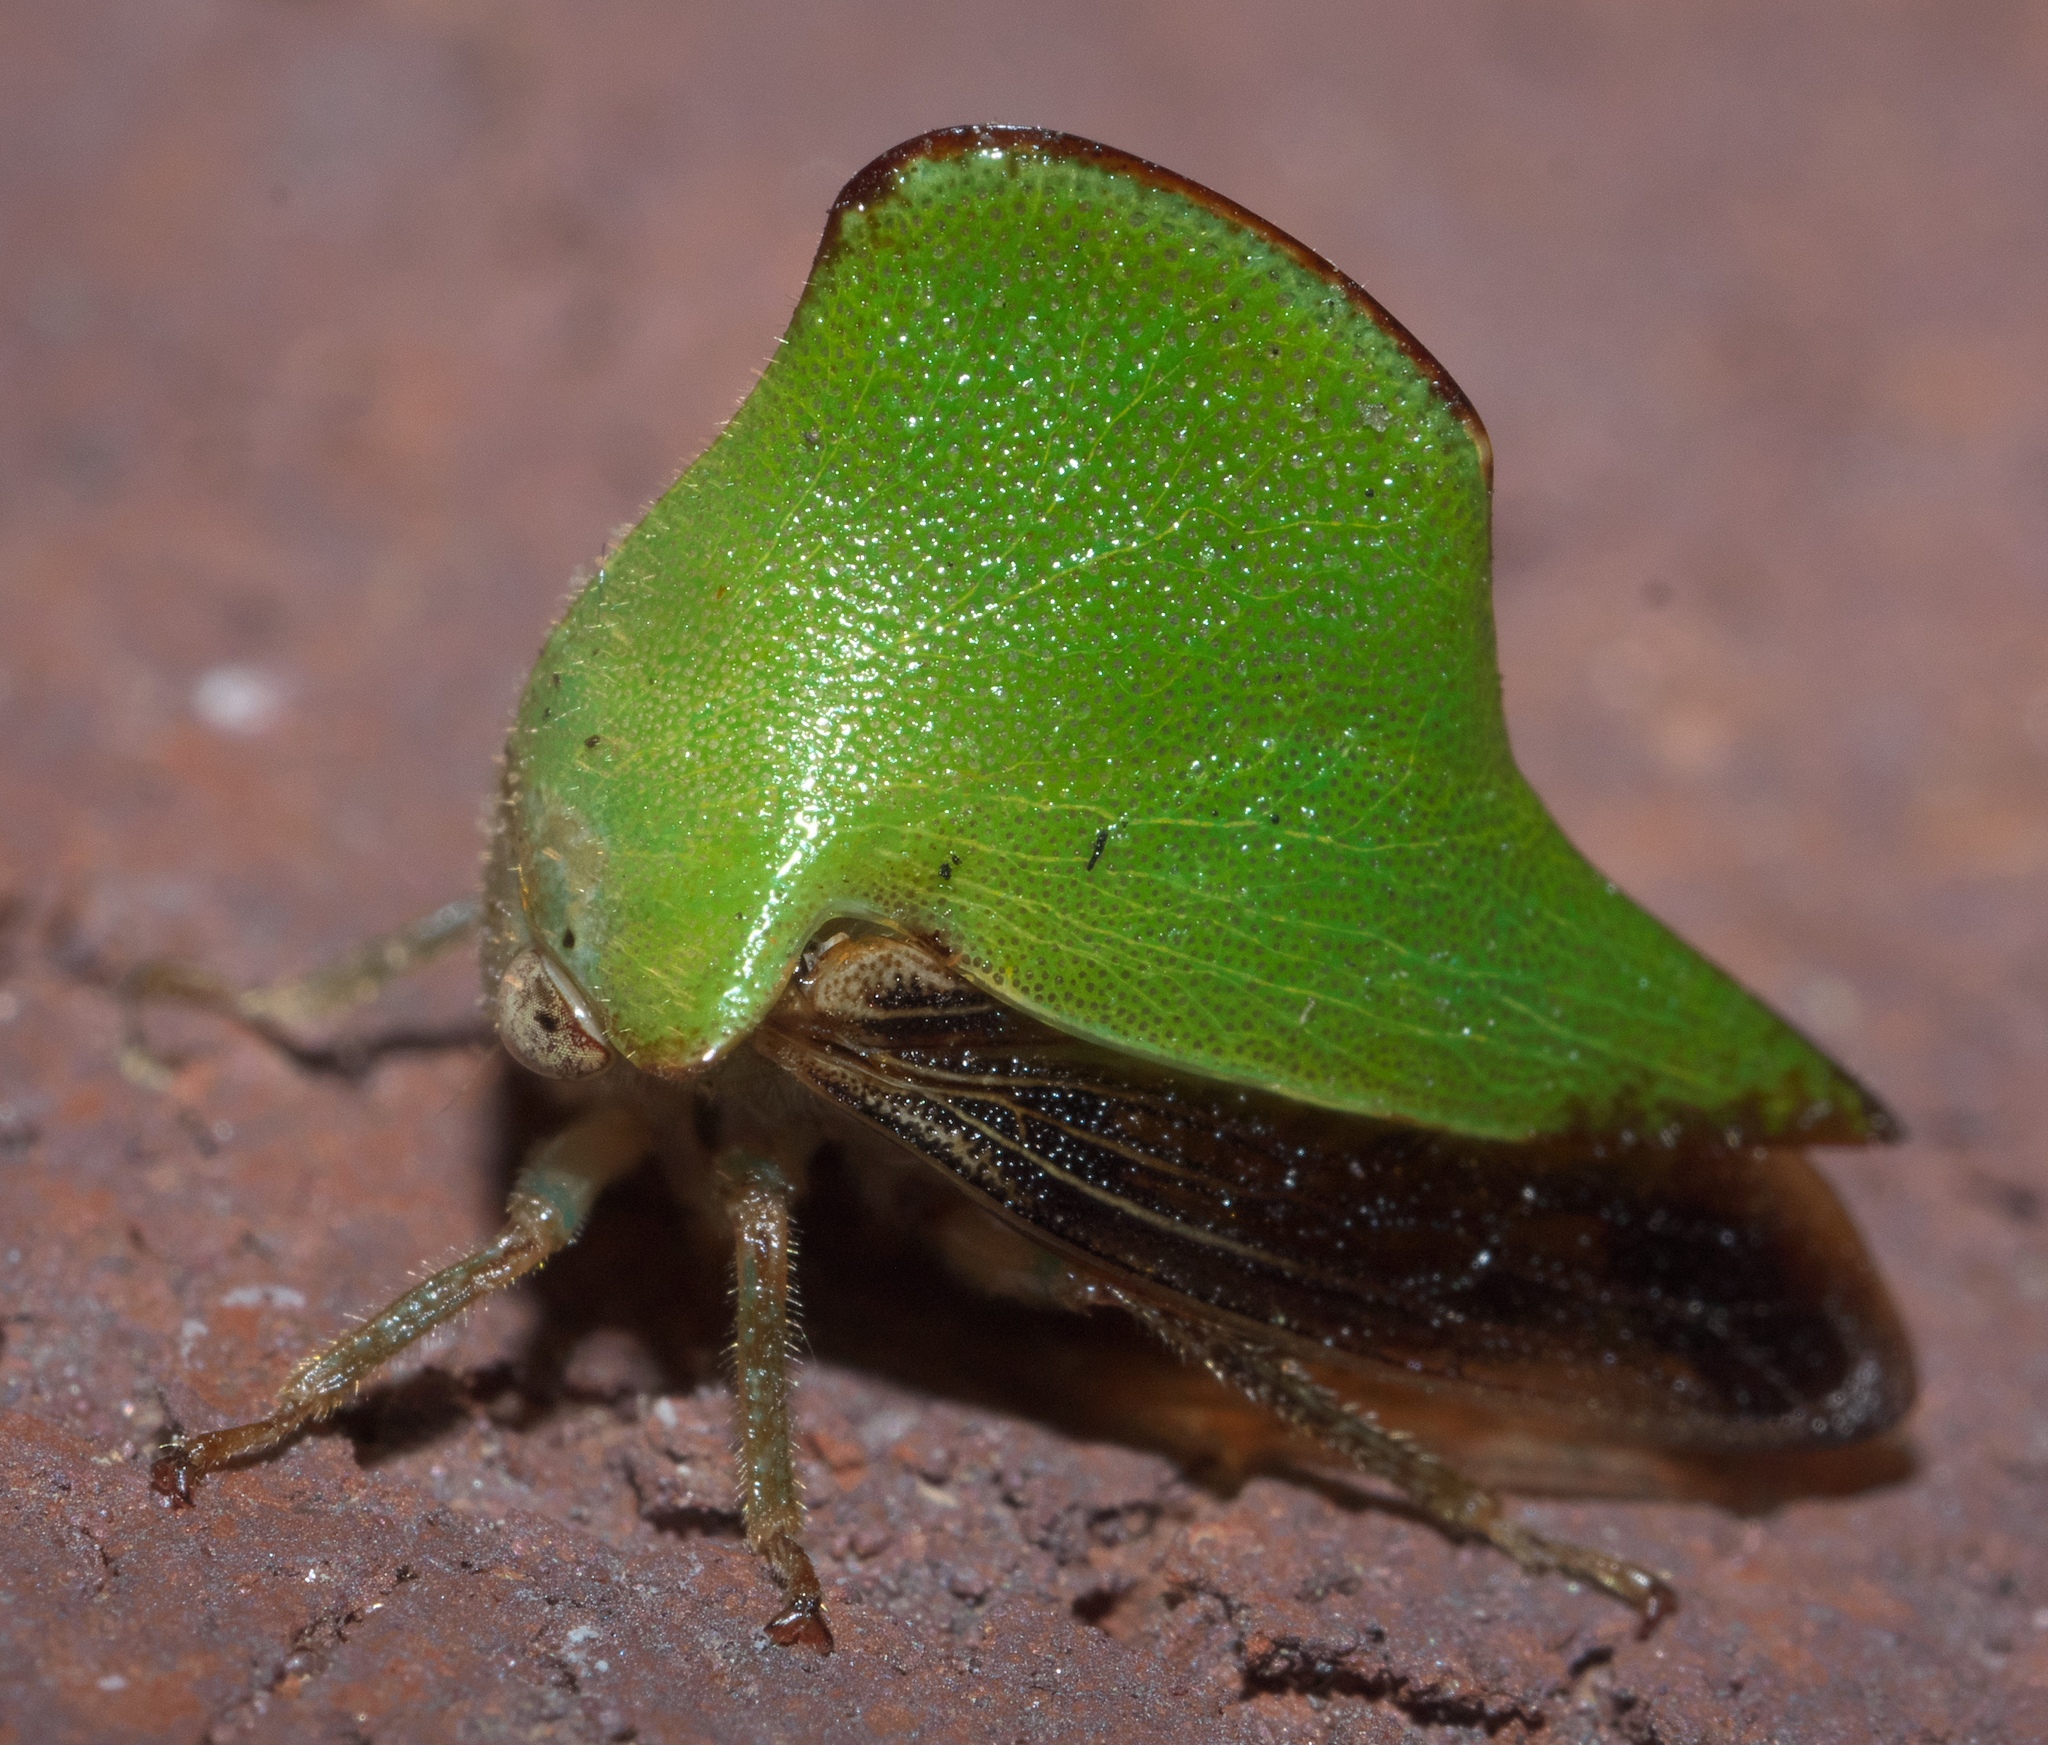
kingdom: Animalia
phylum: Arthropoda
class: Insecta
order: Hemiptera
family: Membracidae
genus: Helonica
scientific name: Helonica excelsa
